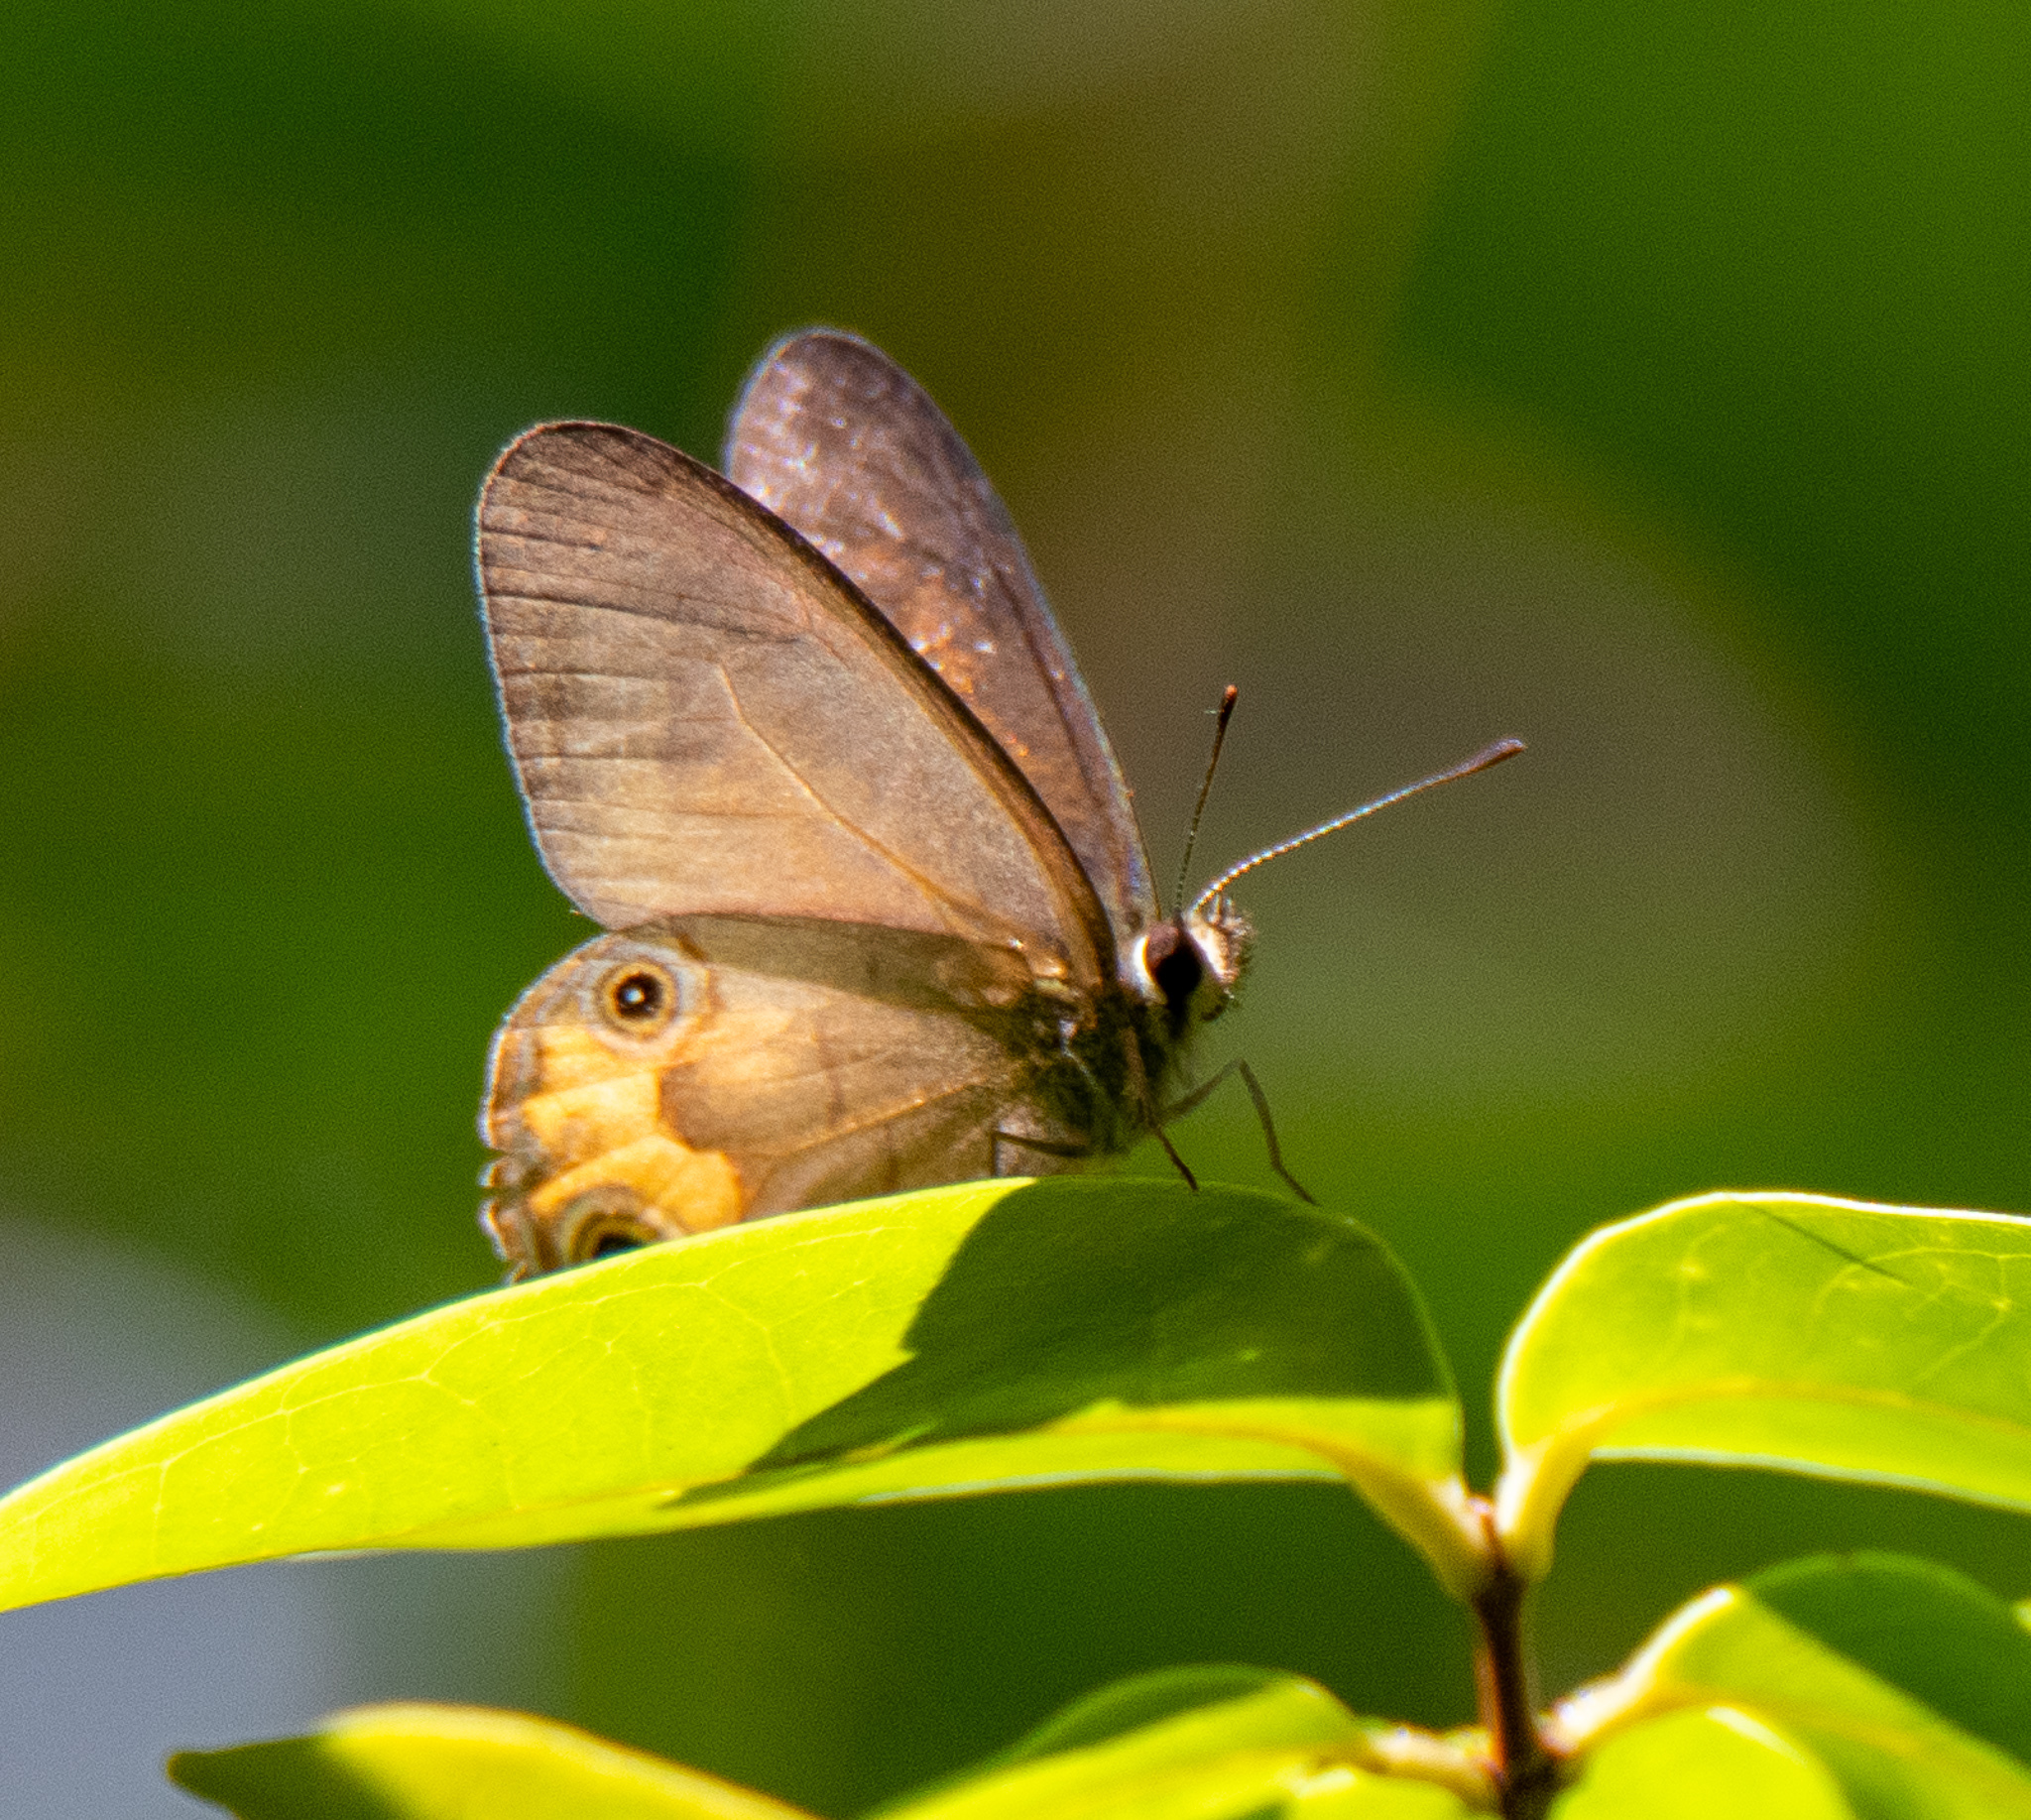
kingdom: Animalia
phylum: Arthropoda
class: Insecta
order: Lepidoptera
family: Nymphalidae
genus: Hypocysta
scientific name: Hypocysta metirius
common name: Brown ringlet
